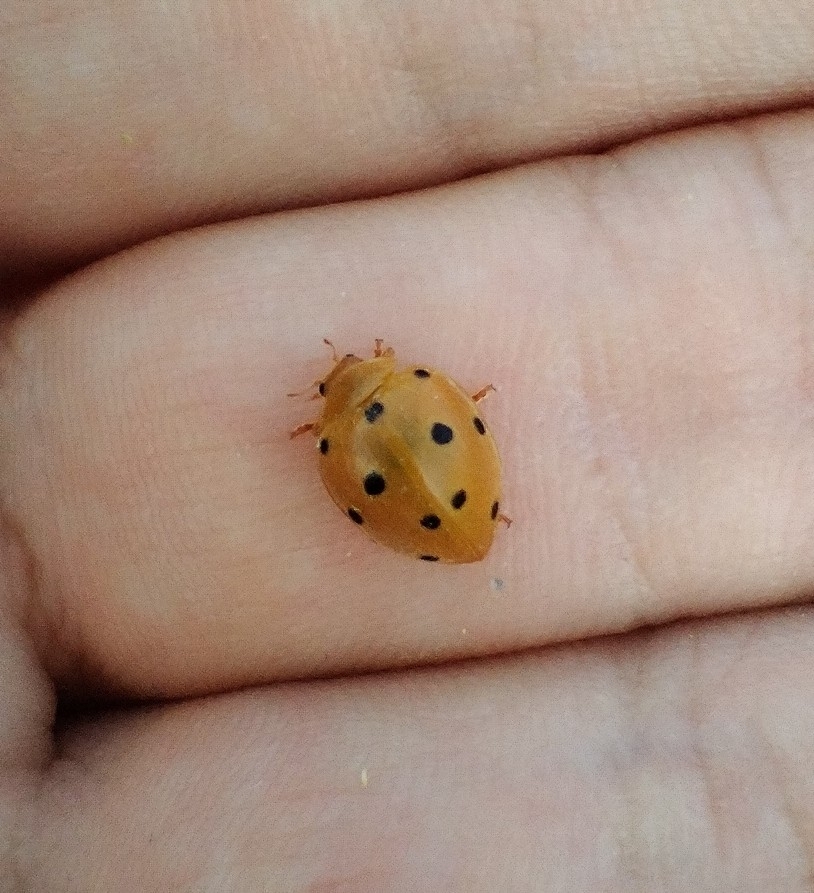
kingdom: Animalia
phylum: Arthropoda
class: Insecta
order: Coleoptera
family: Coccinellidae
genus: Henosepilachna
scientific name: Henosepilachna argus
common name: Bryony ladybird
